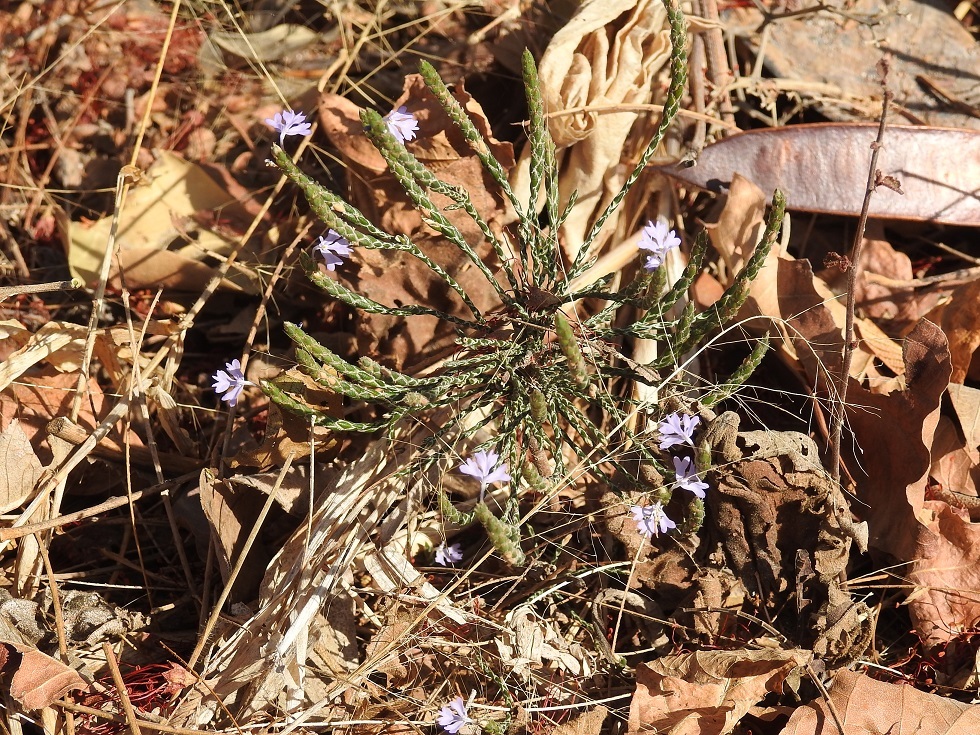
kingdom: Plantae
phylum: Tracheophyta
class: Magnoliopsida
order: Lamiales
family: Acanthaceae
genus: Elytraria
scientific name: Elytraria imbricata
